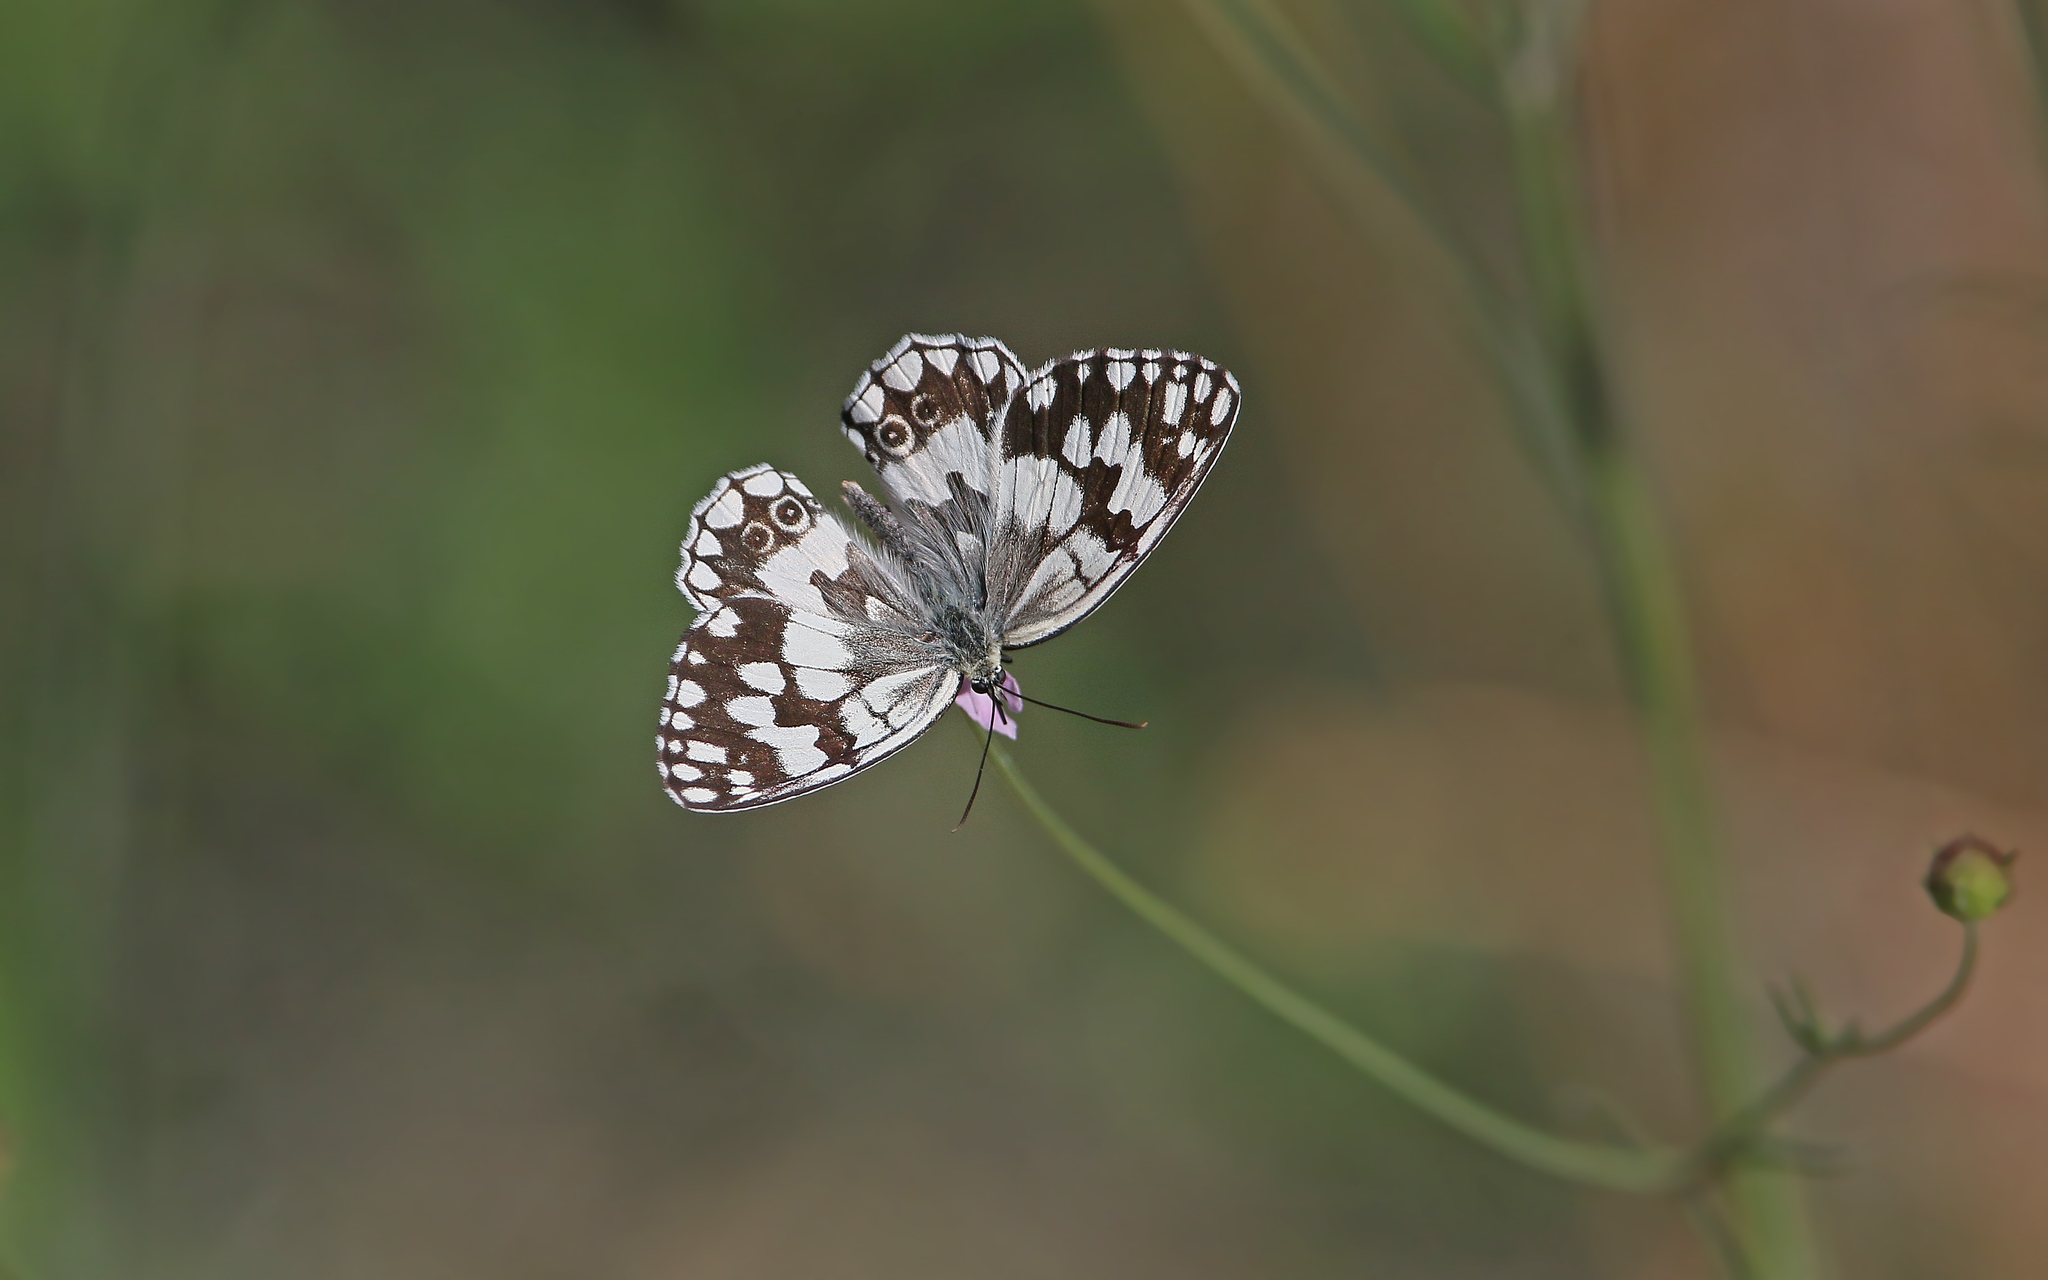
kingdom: Animalia
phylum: Arthropoda
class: Insecta
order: Lepidoptera
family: Nymphalidae
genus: Melanargia
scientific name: Melanargia larissa
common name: Balkan marbled white
